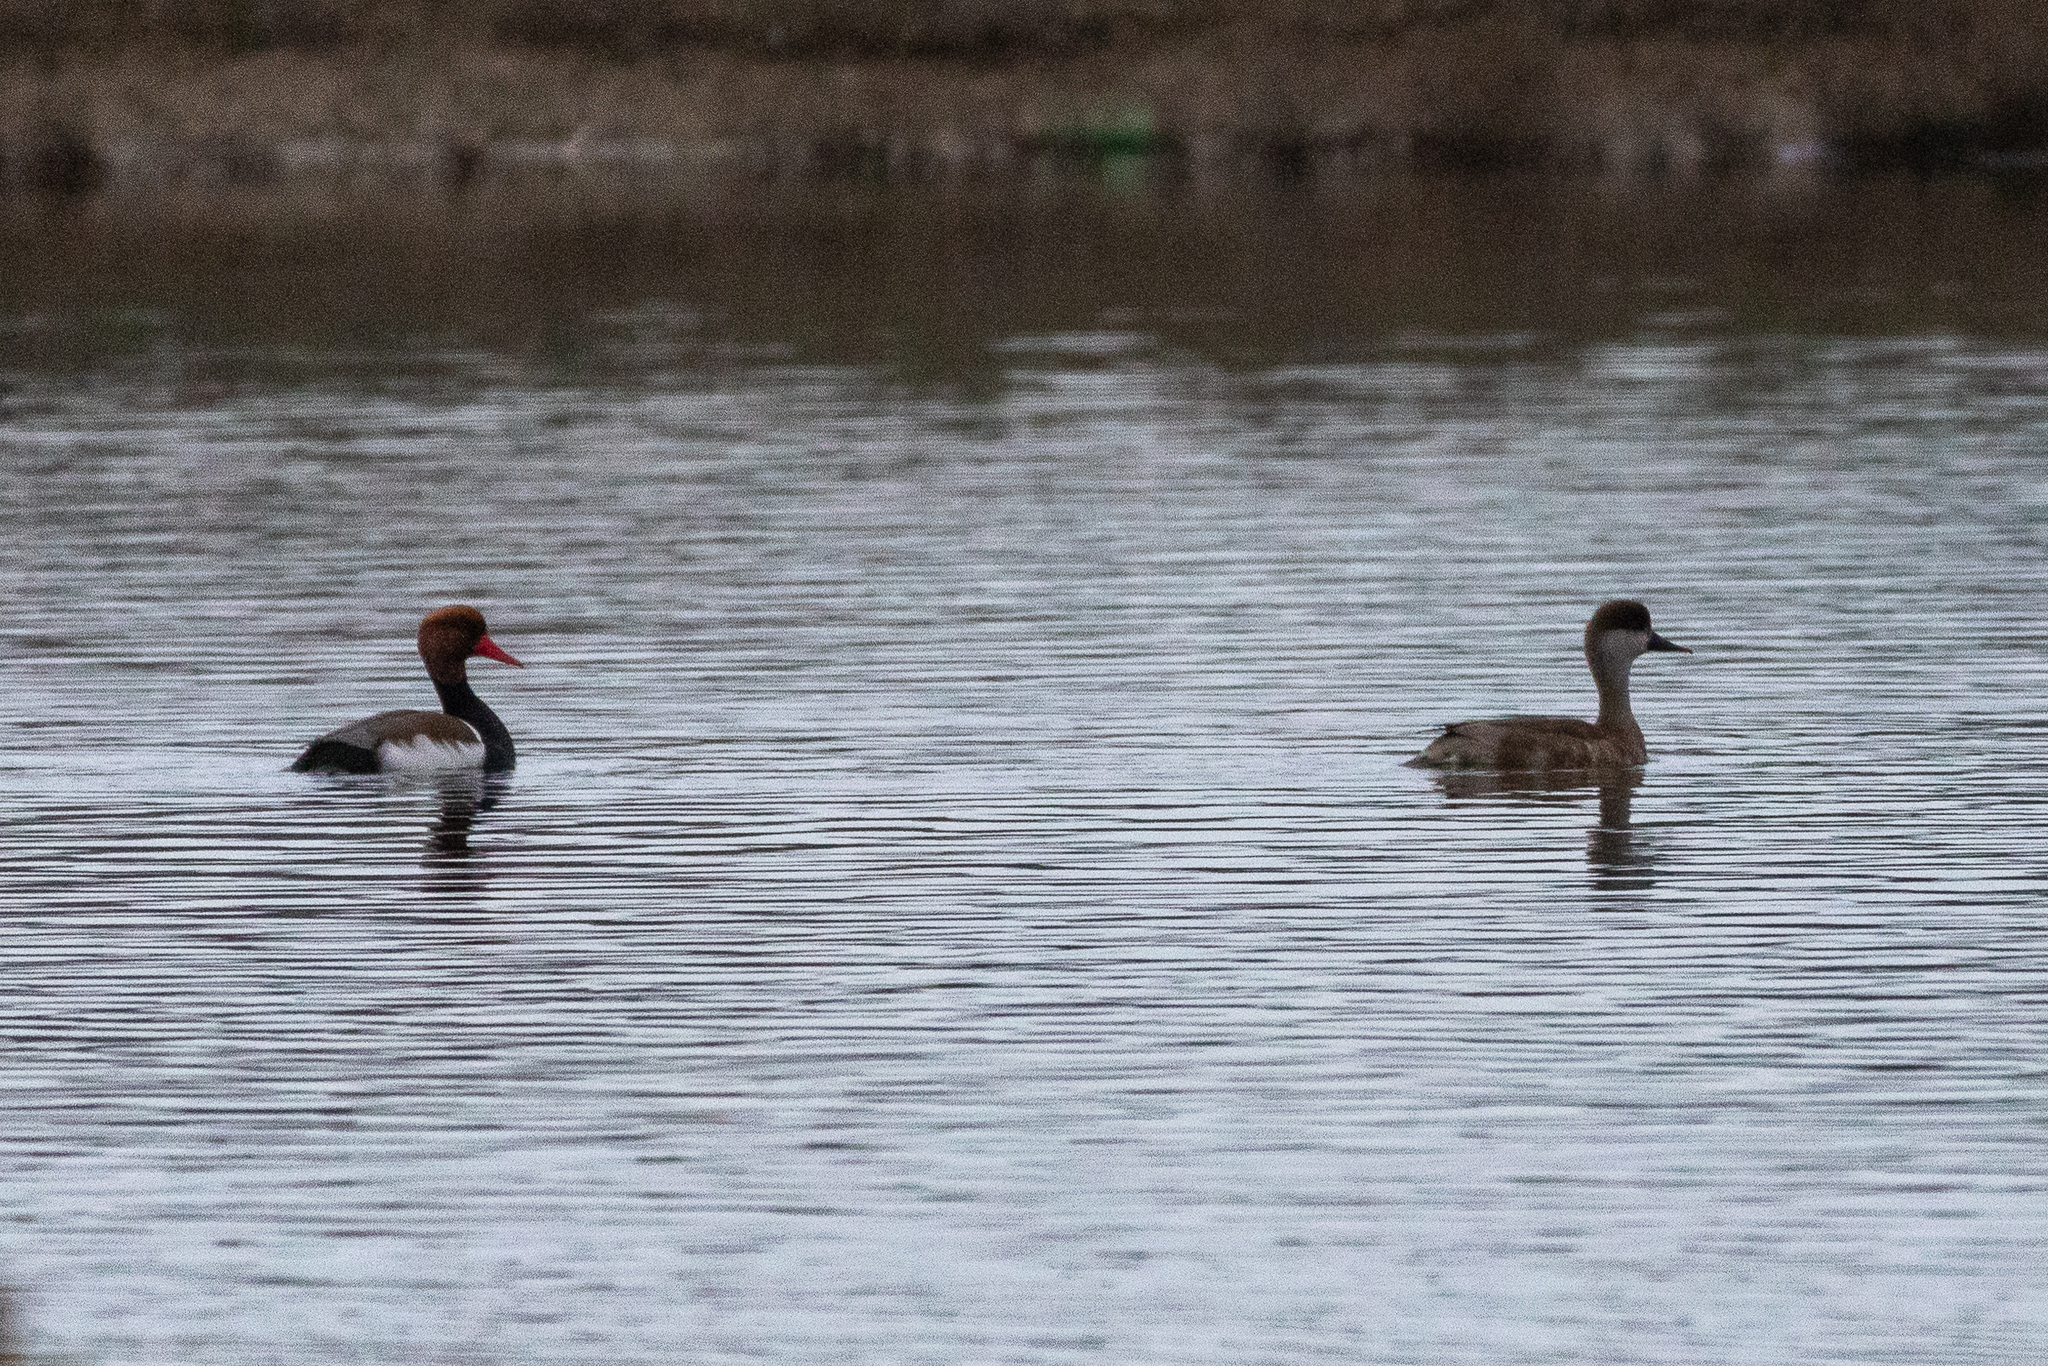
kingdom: Animalia
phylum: Chordata
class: Aves
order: Anseriformes
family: Anatidae
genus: Netta
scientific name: Netta rufina
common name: Red-crested pochard
